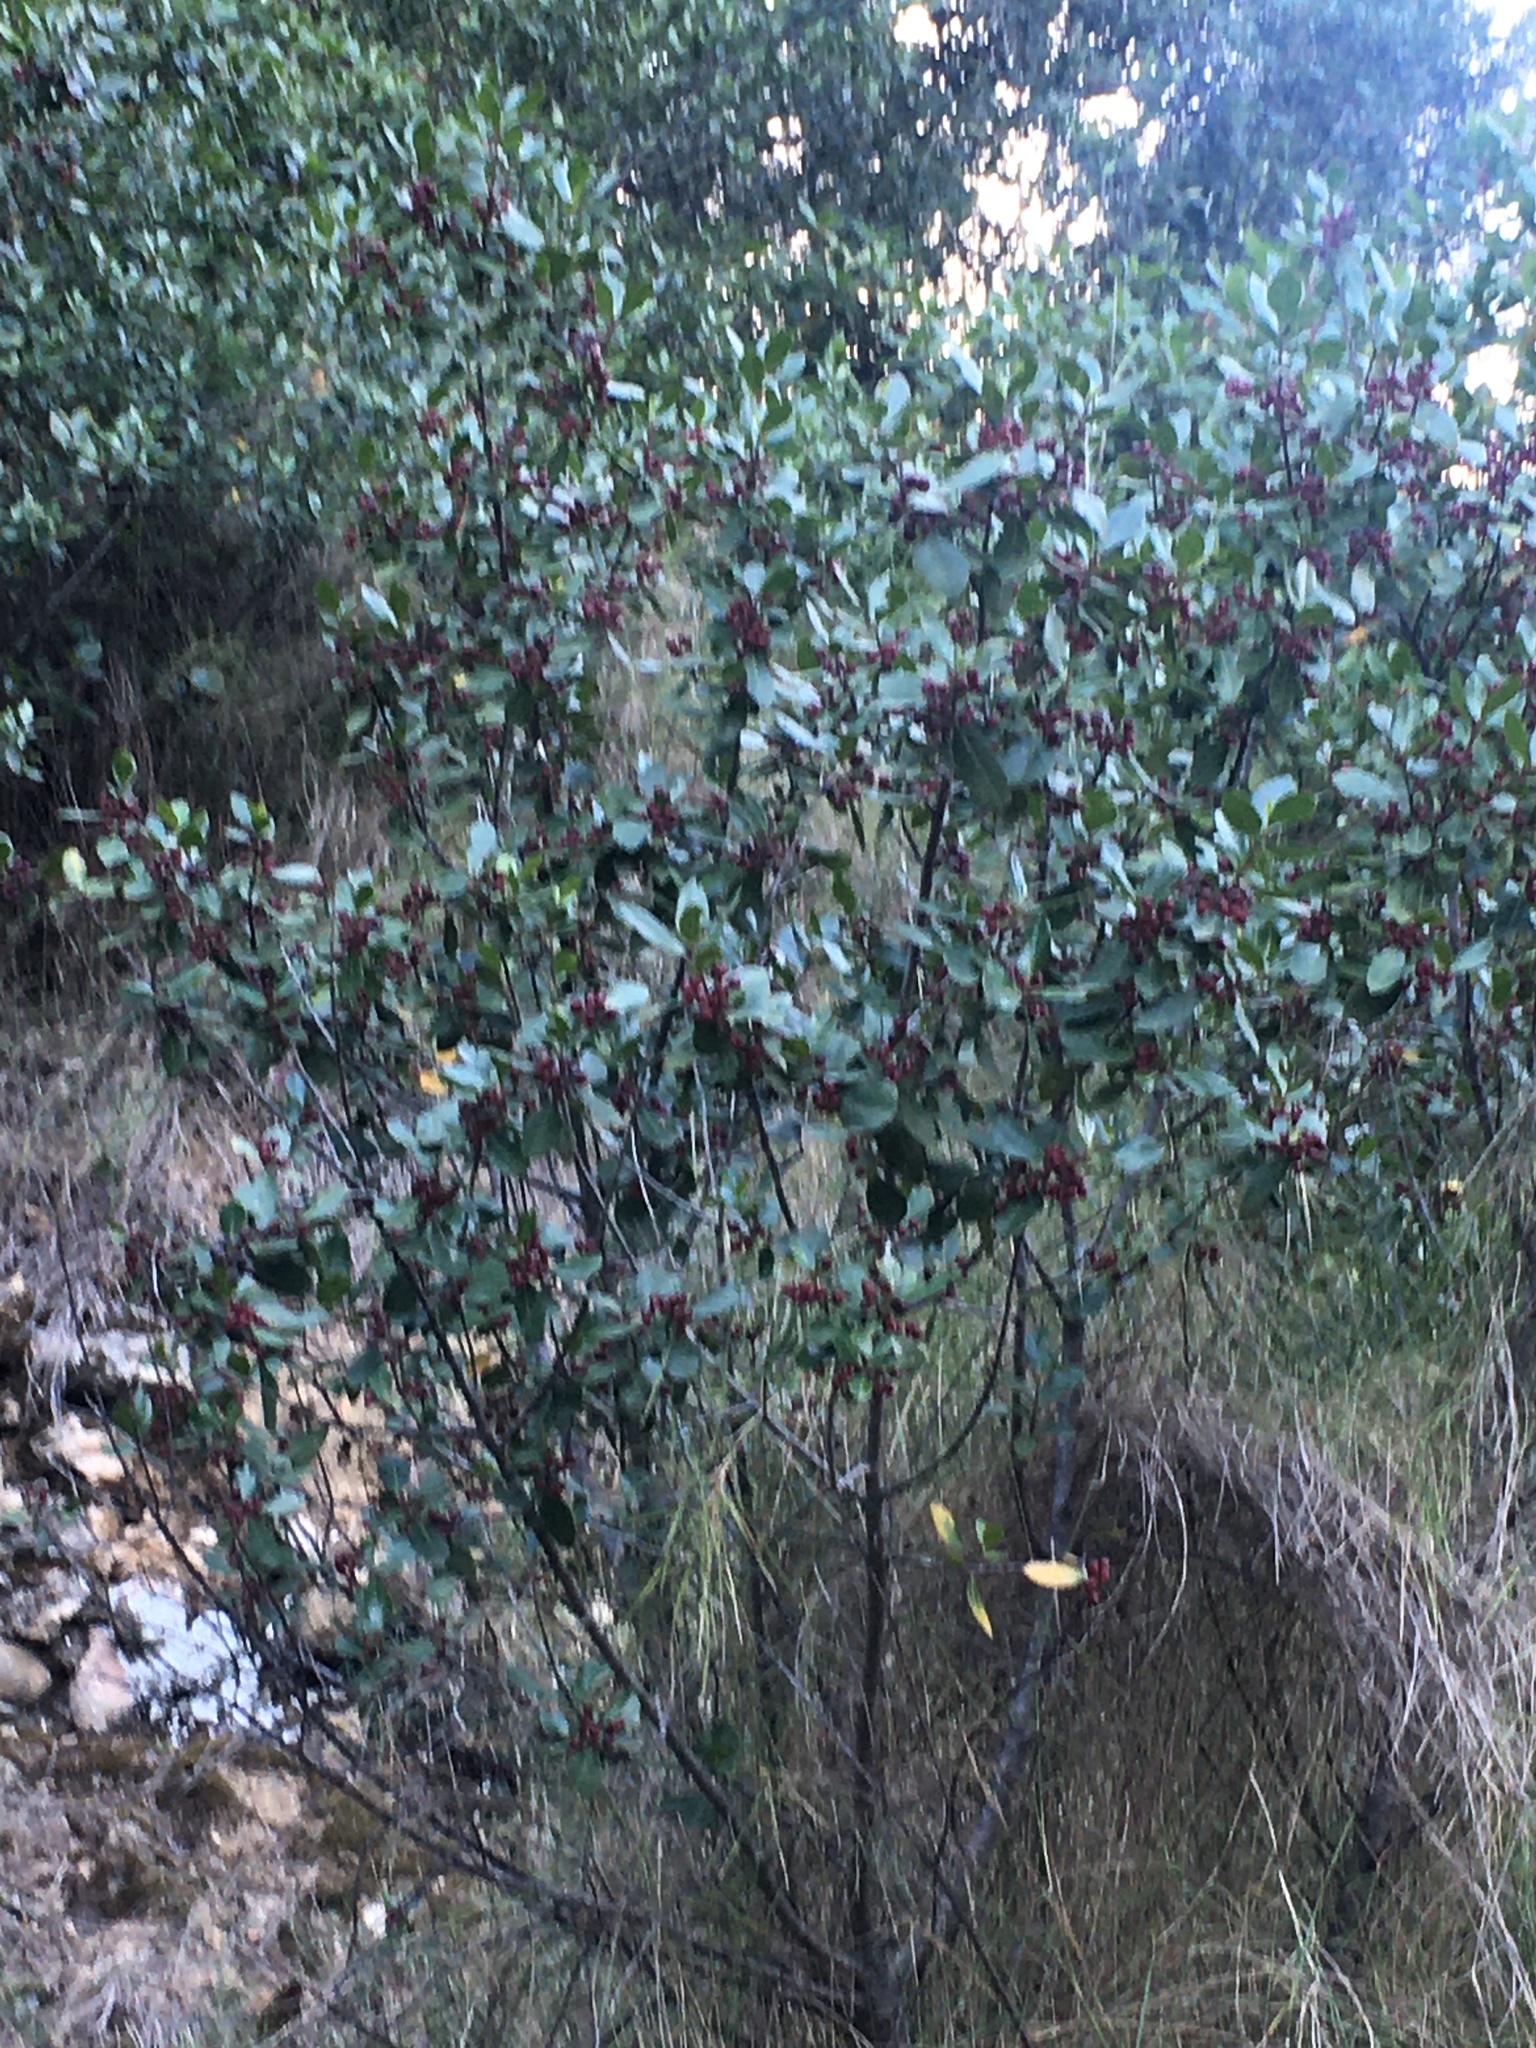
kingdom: Plantae
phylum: Tracheophyta
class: Magnoliopsida
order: Rosales
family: Rhamnaceae
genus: Rhamnus
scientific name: Rhamnus alaternus
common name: Mediterranean buckthorn
